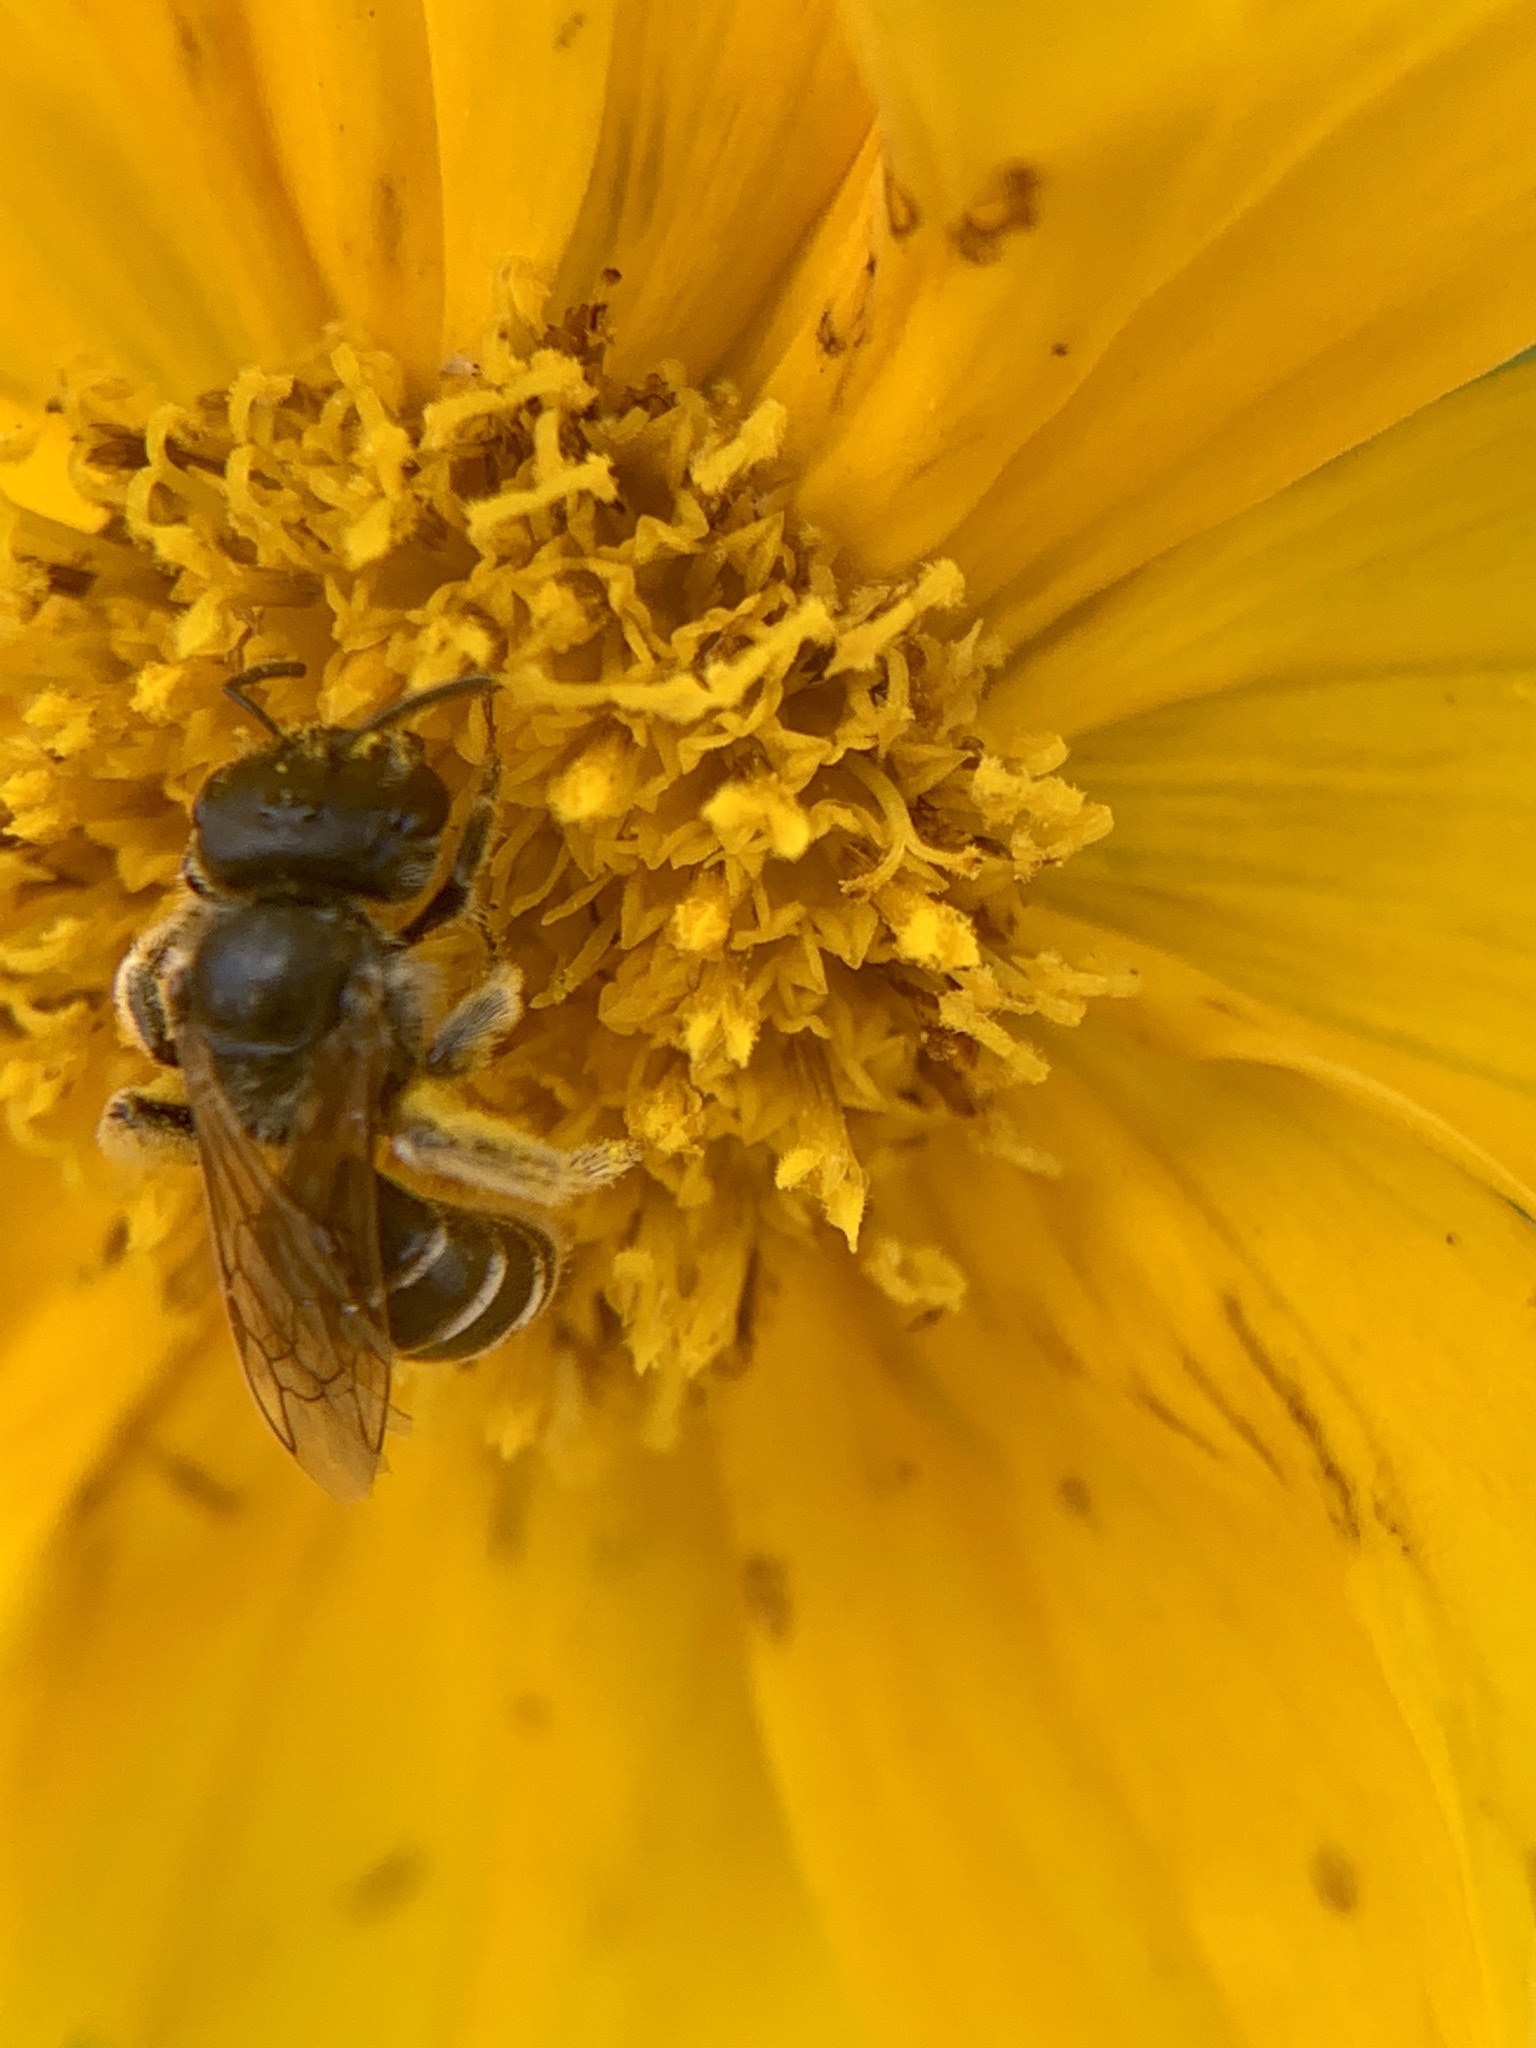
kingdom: Animalia
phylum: Arthropoda
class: Insecta
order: Hymenoptera
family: Halictidae
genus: Halictus
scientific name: Halictus ligatus
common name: Ligated furrow bee
